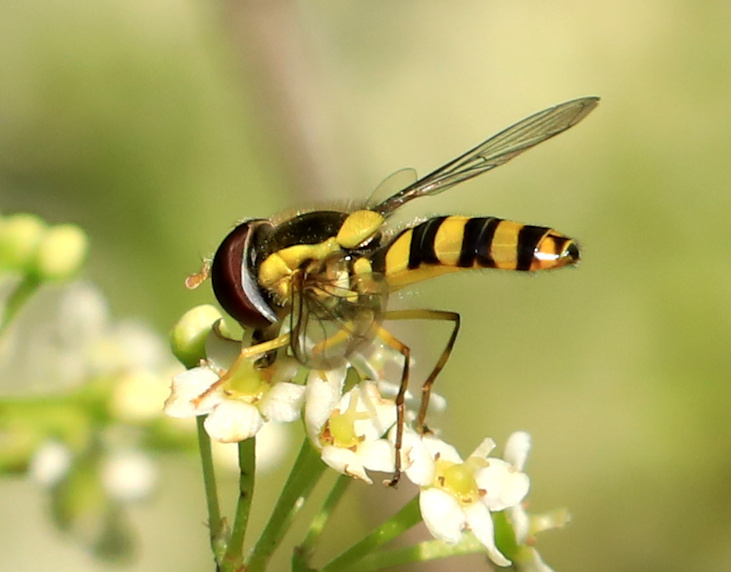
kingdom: Animalia
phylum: Arthropoda
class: Insecta
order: Diptera
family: Syrphidae
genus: Allograpta
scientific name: Allograpta nasuta
